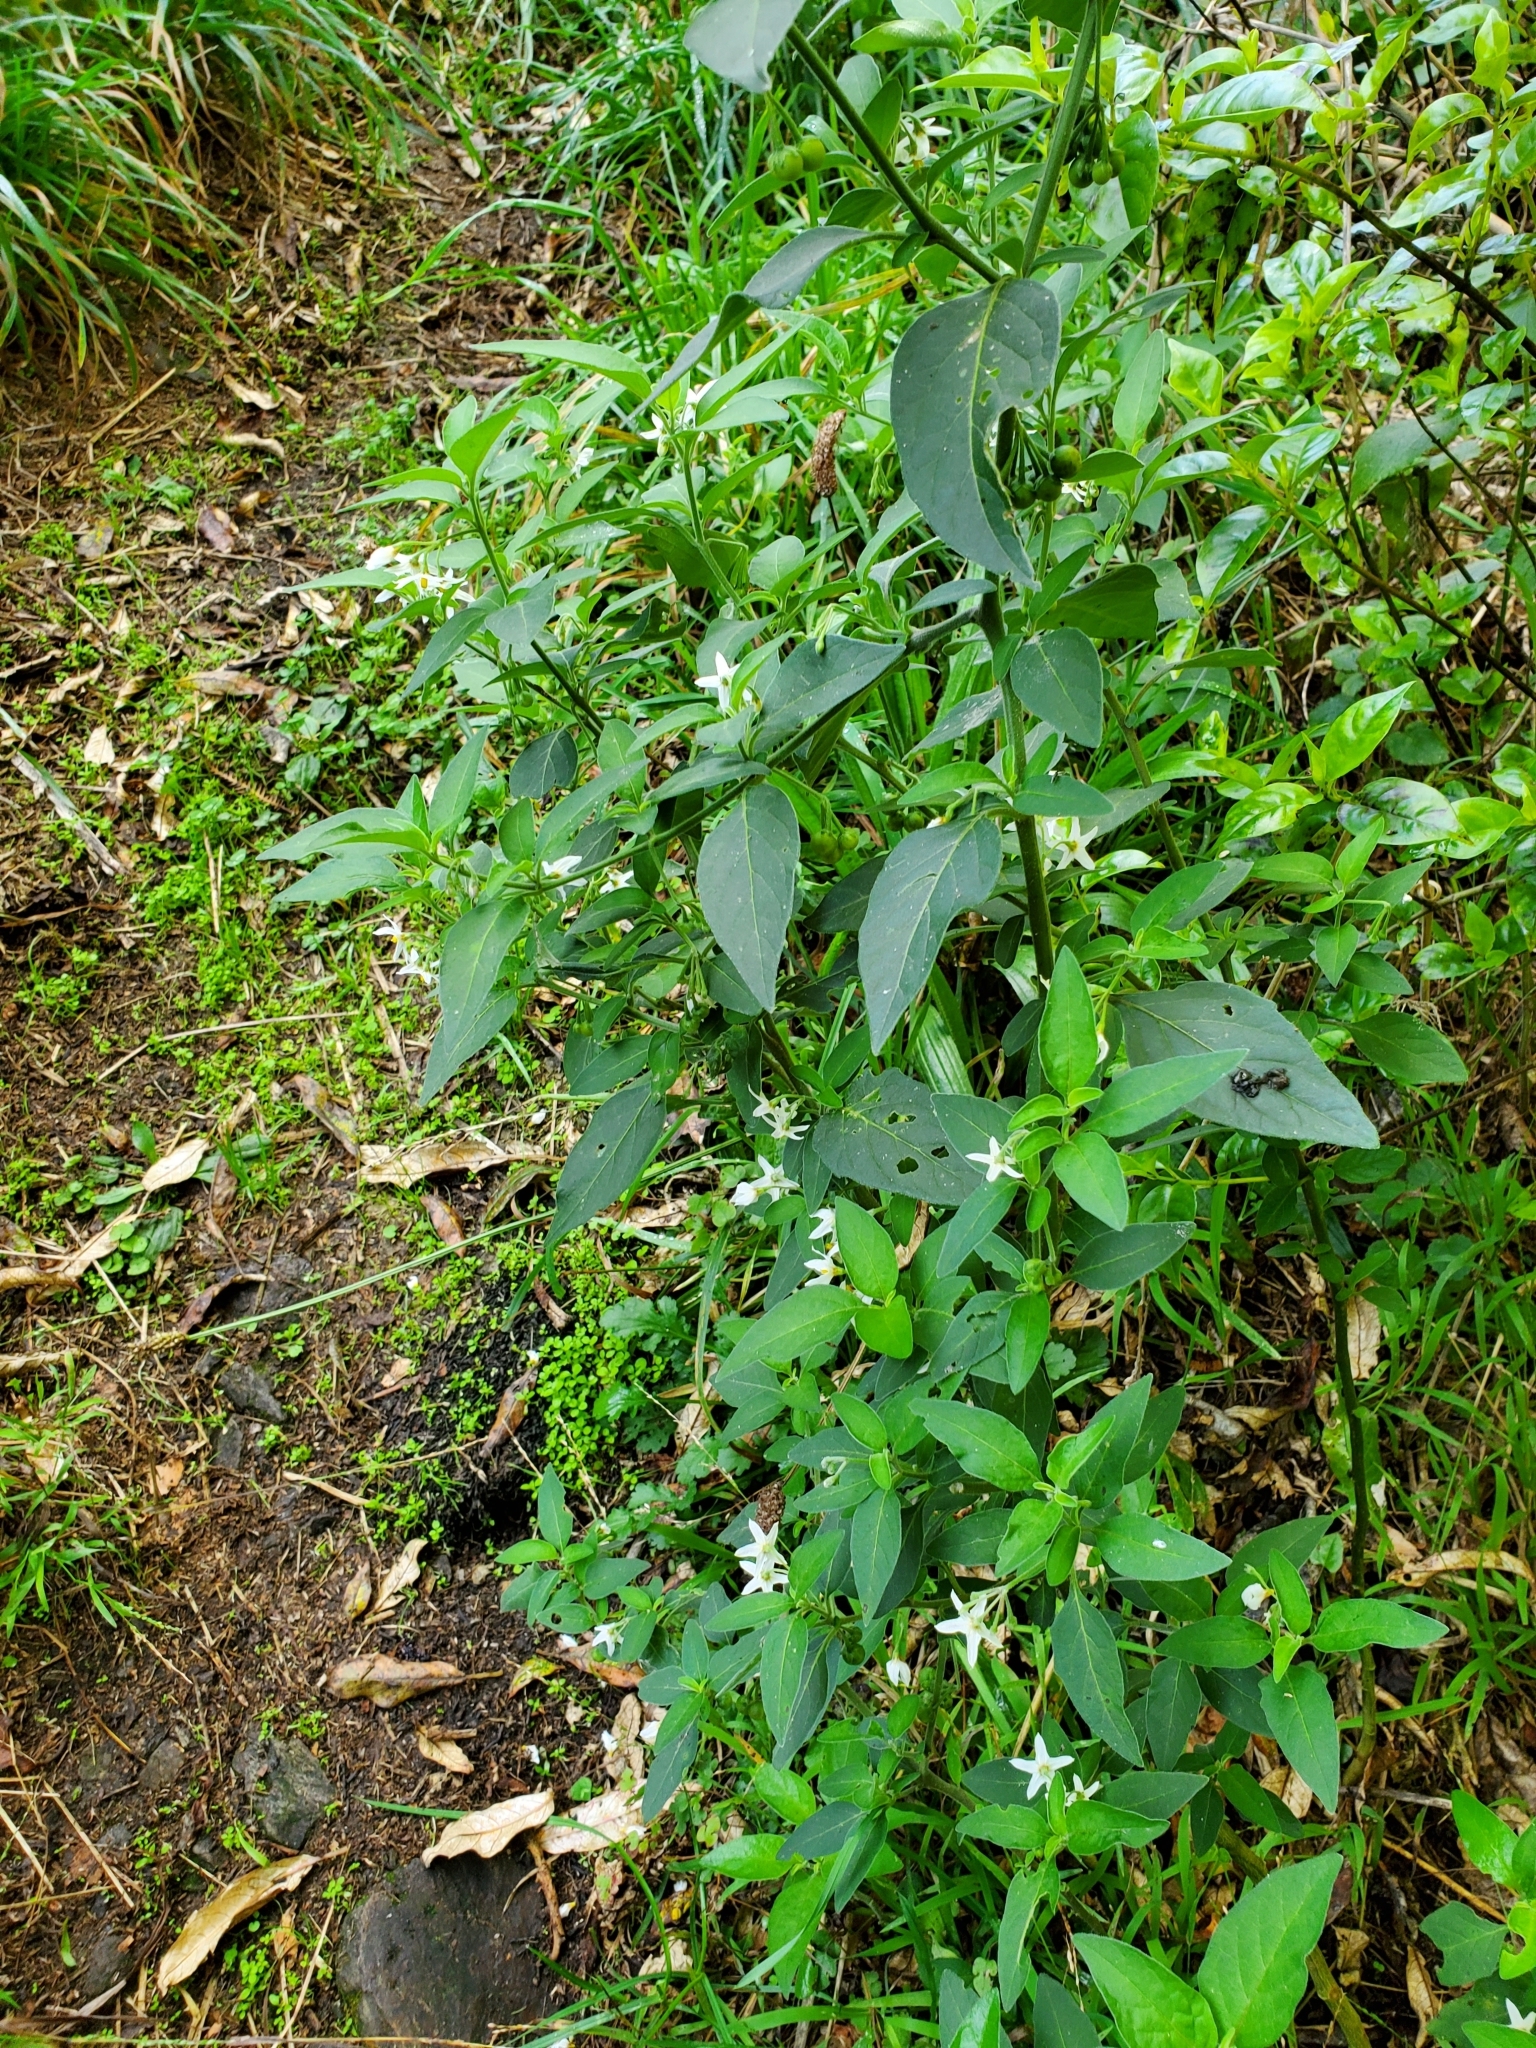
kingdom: Plantae
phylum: Tracheophyta
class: Magnoliopsida
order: Solanales
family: Solanaceae
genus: Solanum
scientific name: Solanum chenopodioides
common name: Tall nightshade
